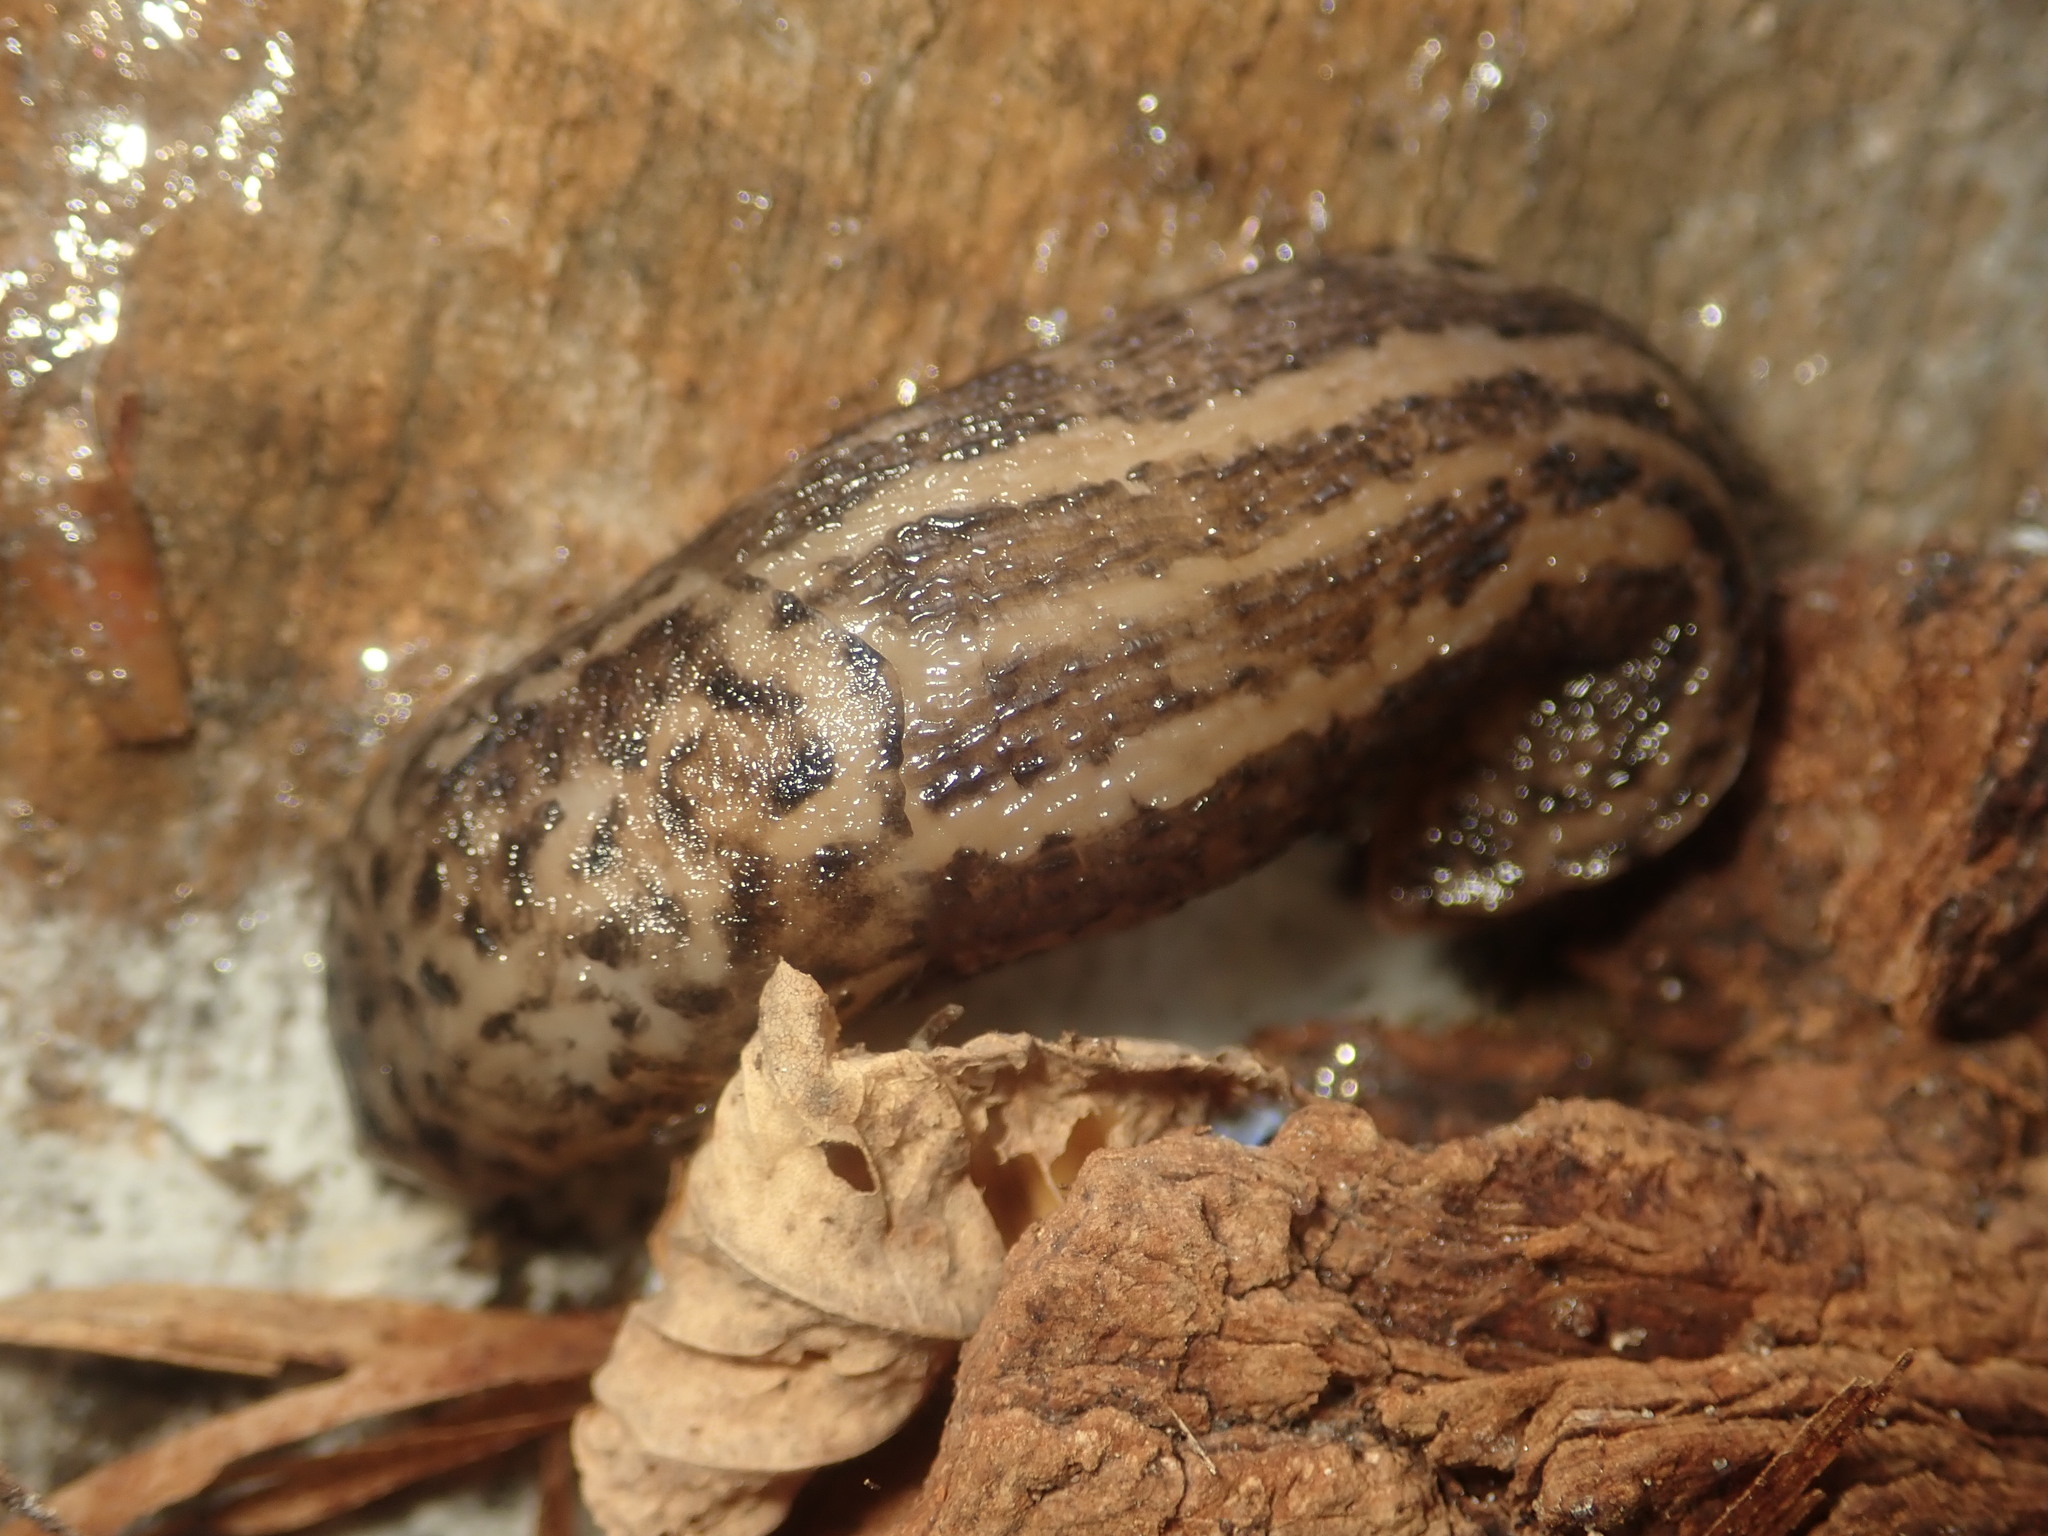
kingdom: Animalia
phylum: Mollusca
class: Gastropoda
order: Stylommatophora
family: Limacidae
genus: Limax
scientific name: Limax maximus
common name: Great grey slug
